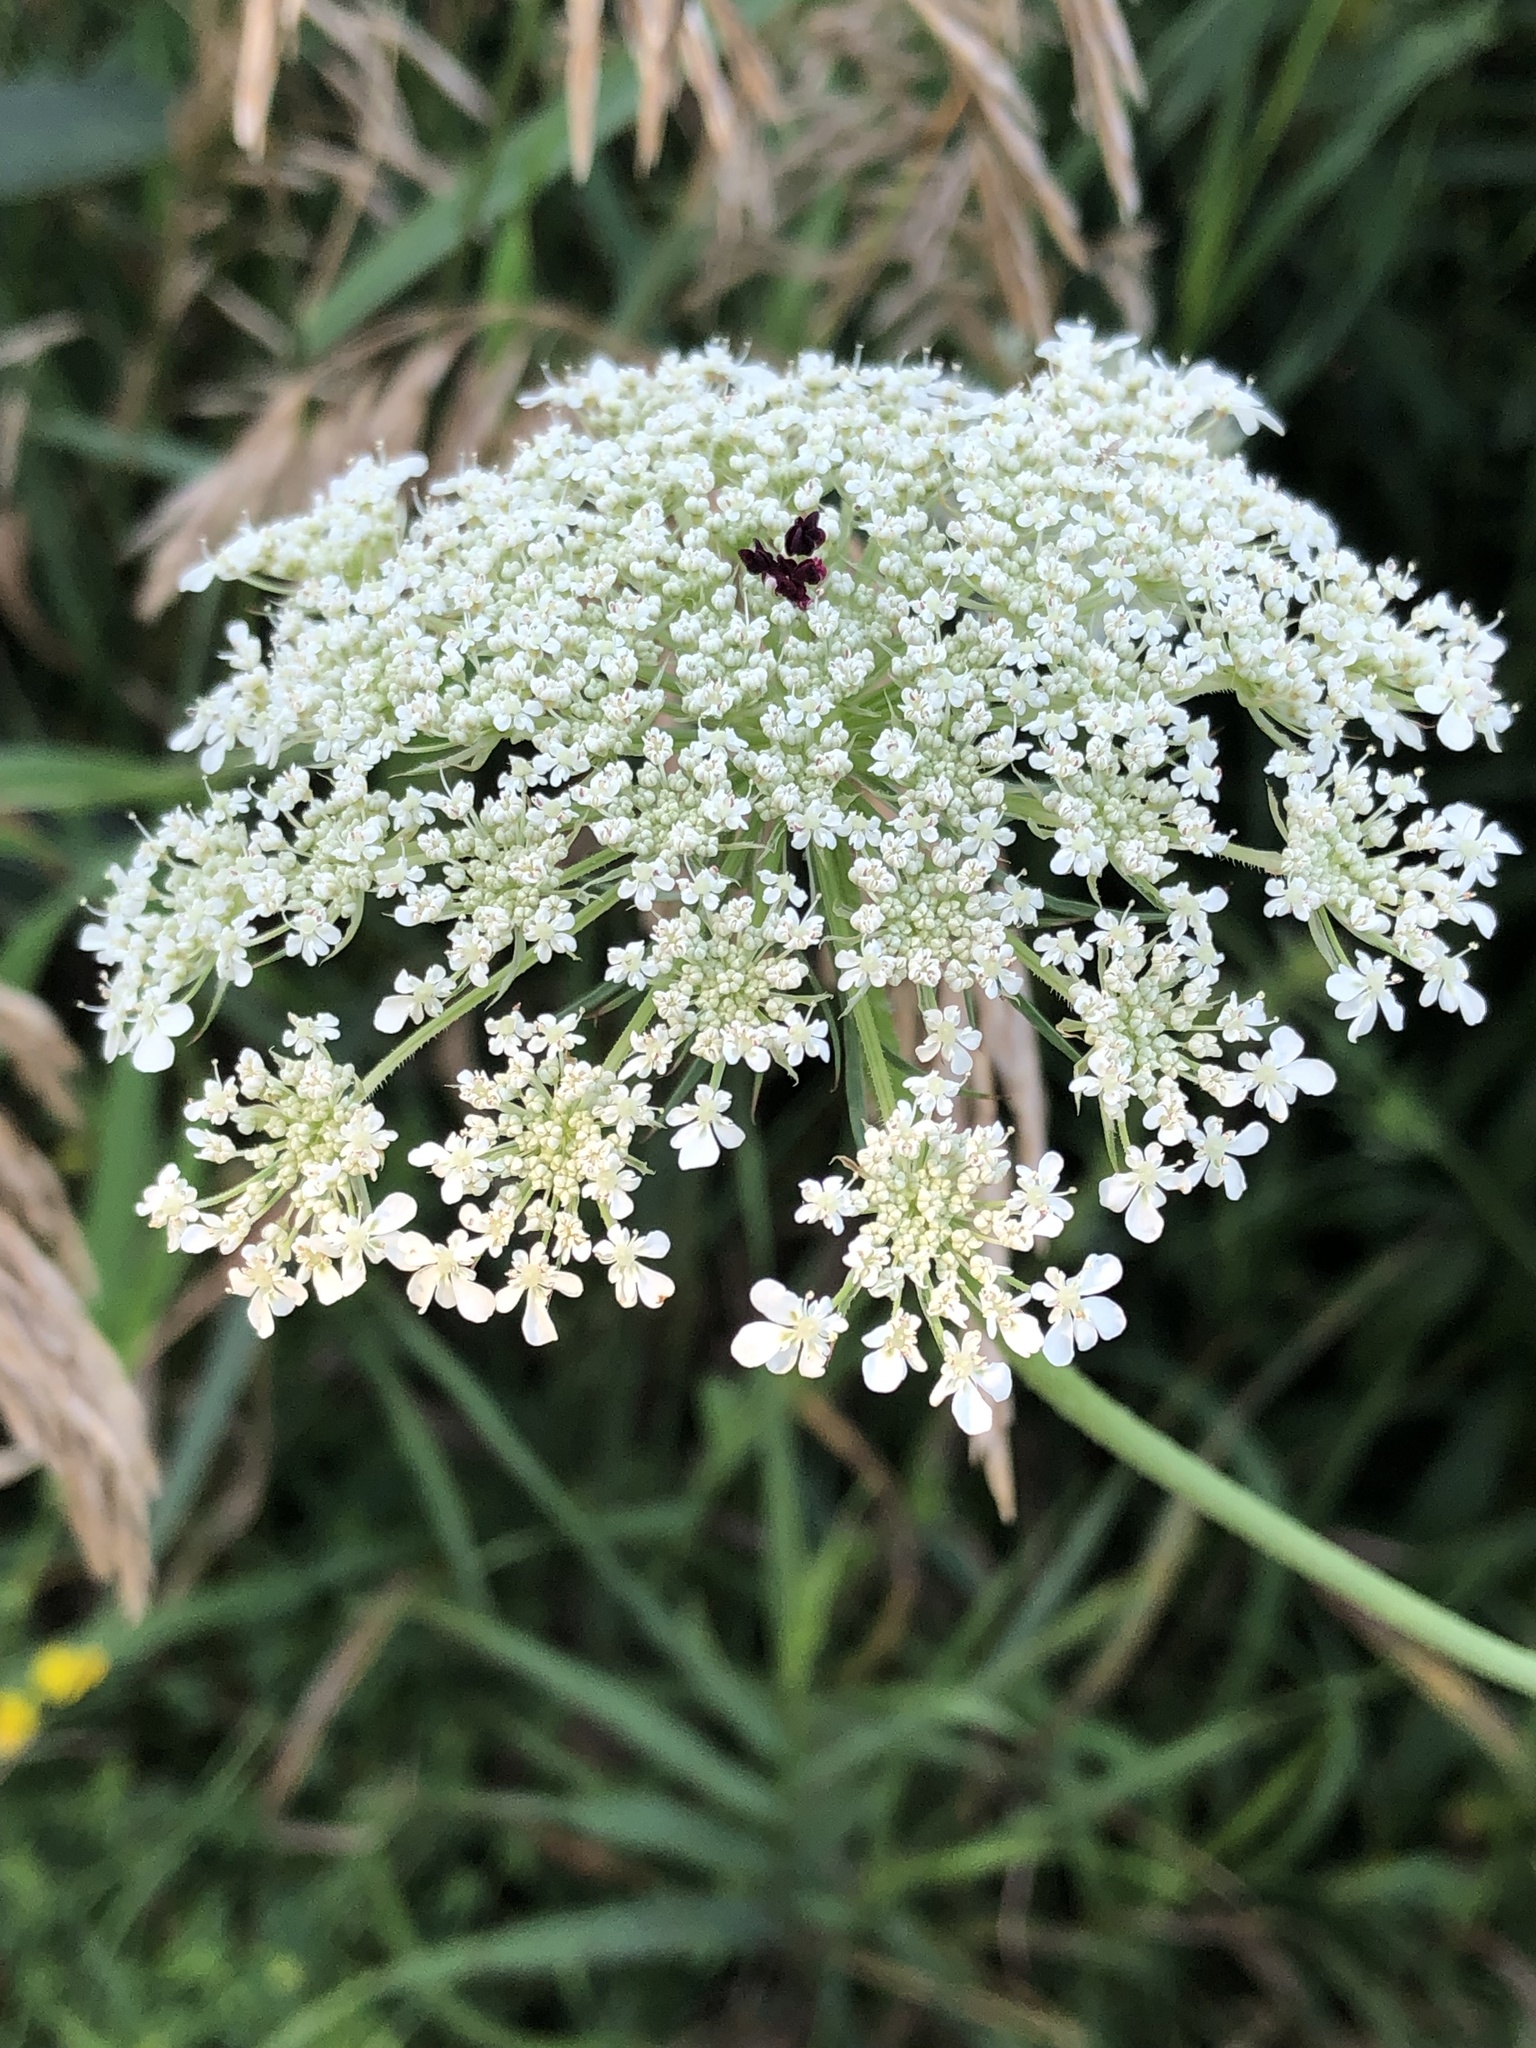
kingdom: Plantae
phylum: Tracheophyta
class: Magnoliopsida
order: Apiales
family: Apiaceae
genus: Daucus
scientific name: Daucus carota
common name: Wild carrot
